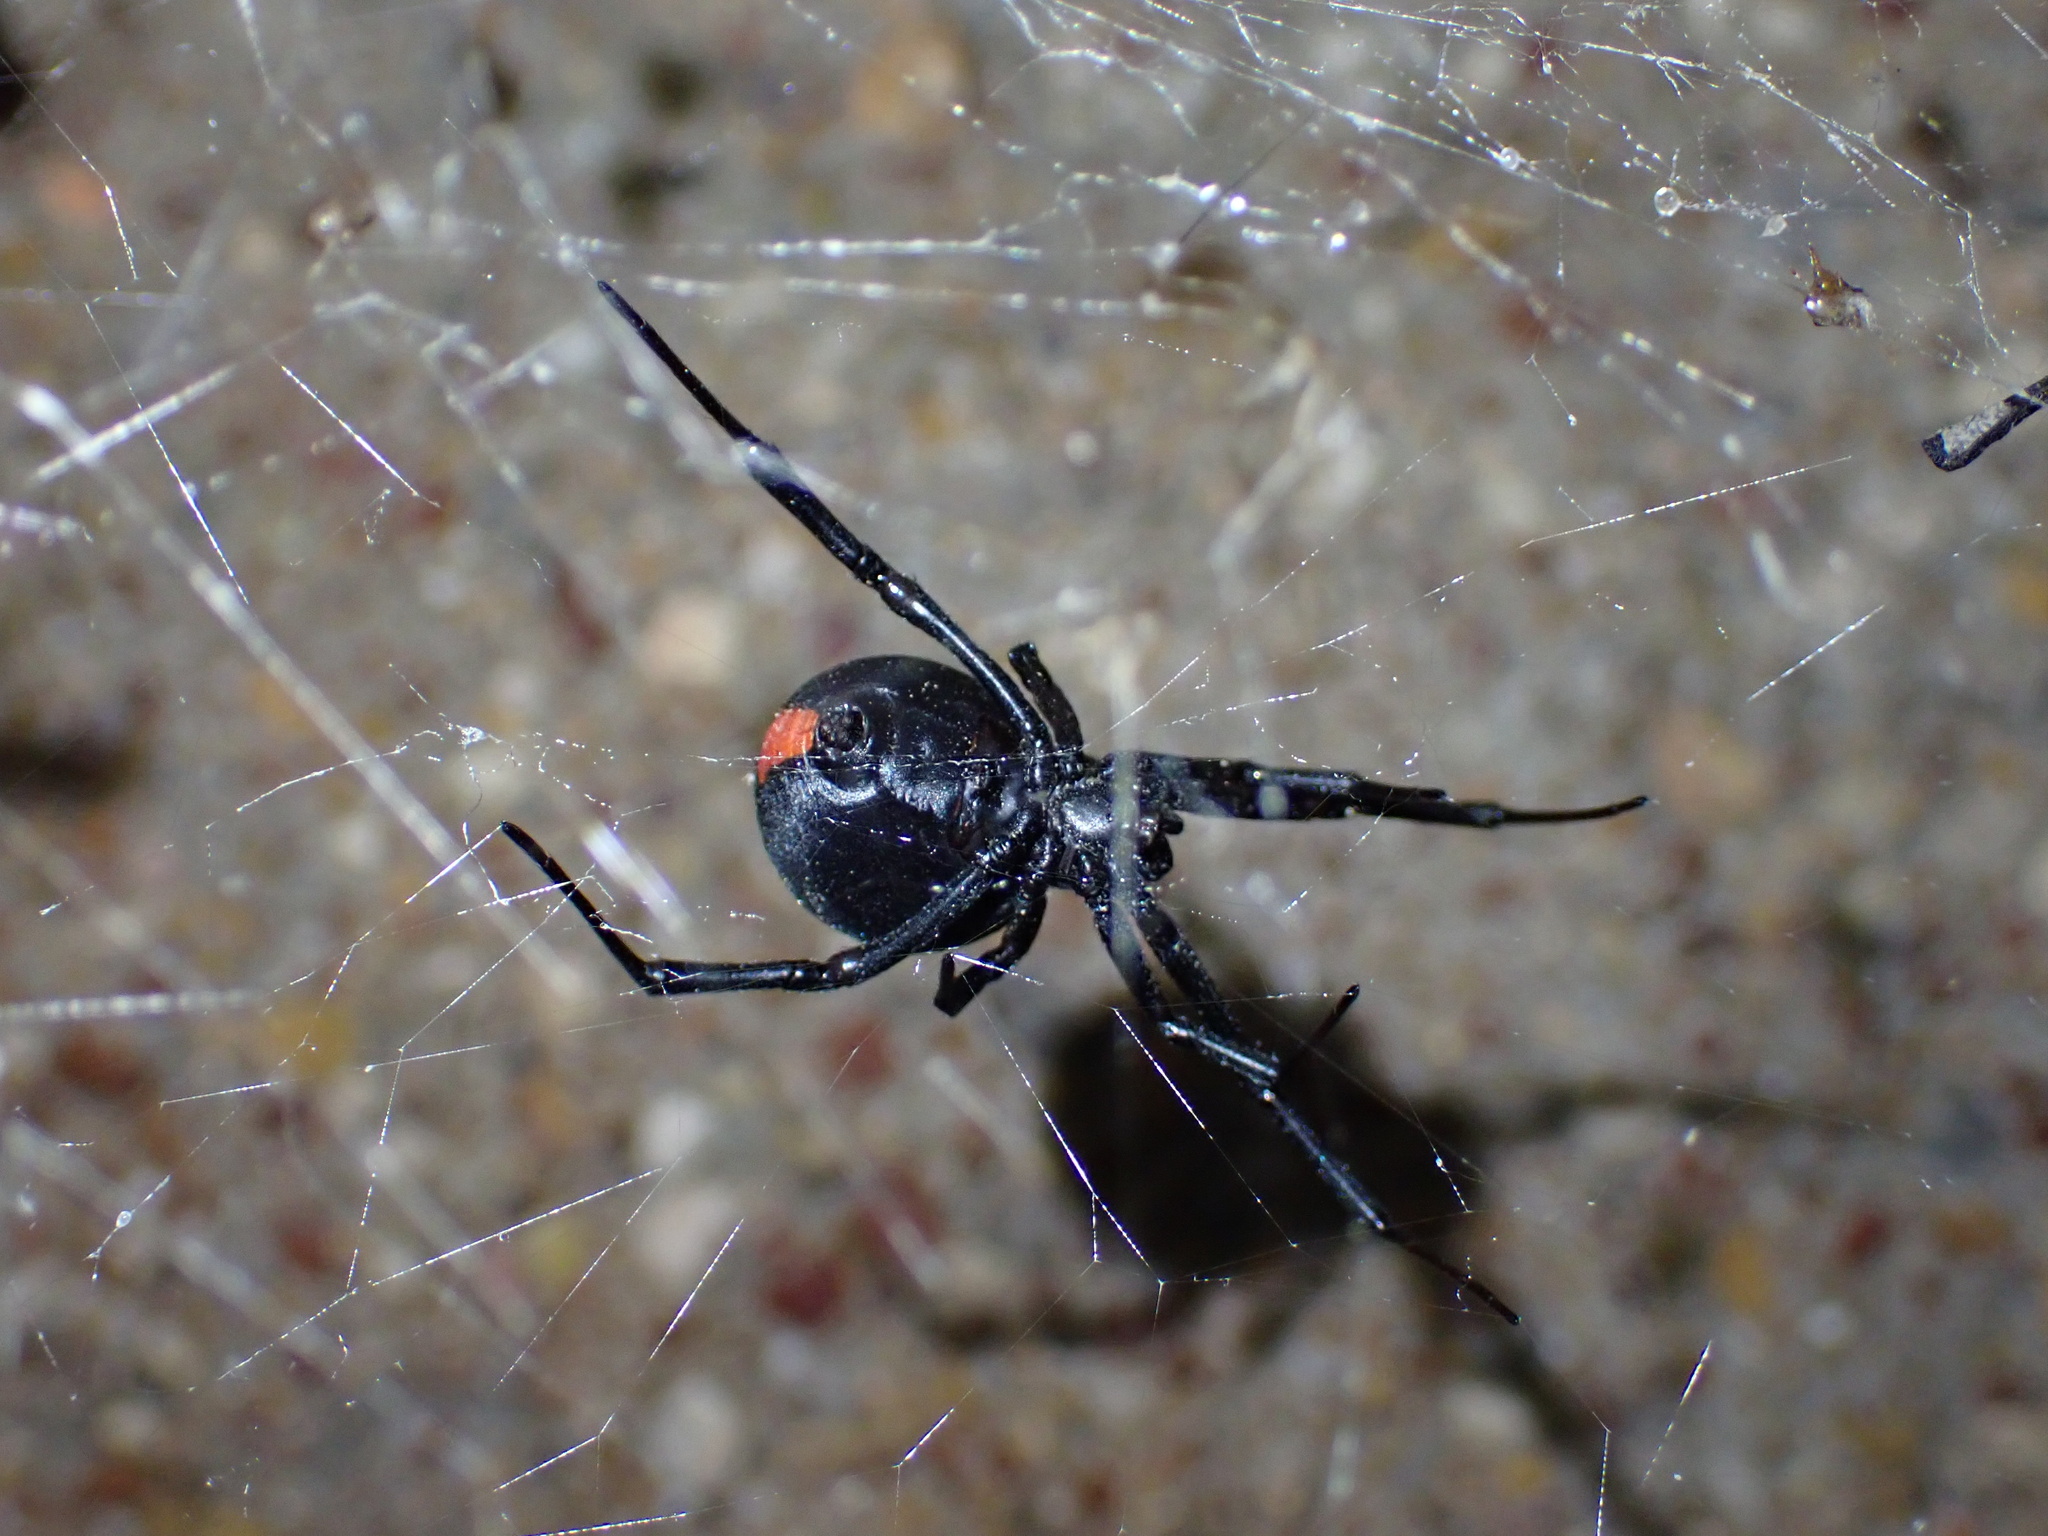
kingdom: Animalia
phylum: Arthropoda
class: Arachnida
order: Araneae
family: Theridiidae
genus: Latrodectus
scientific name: Latrodectus cinctus
